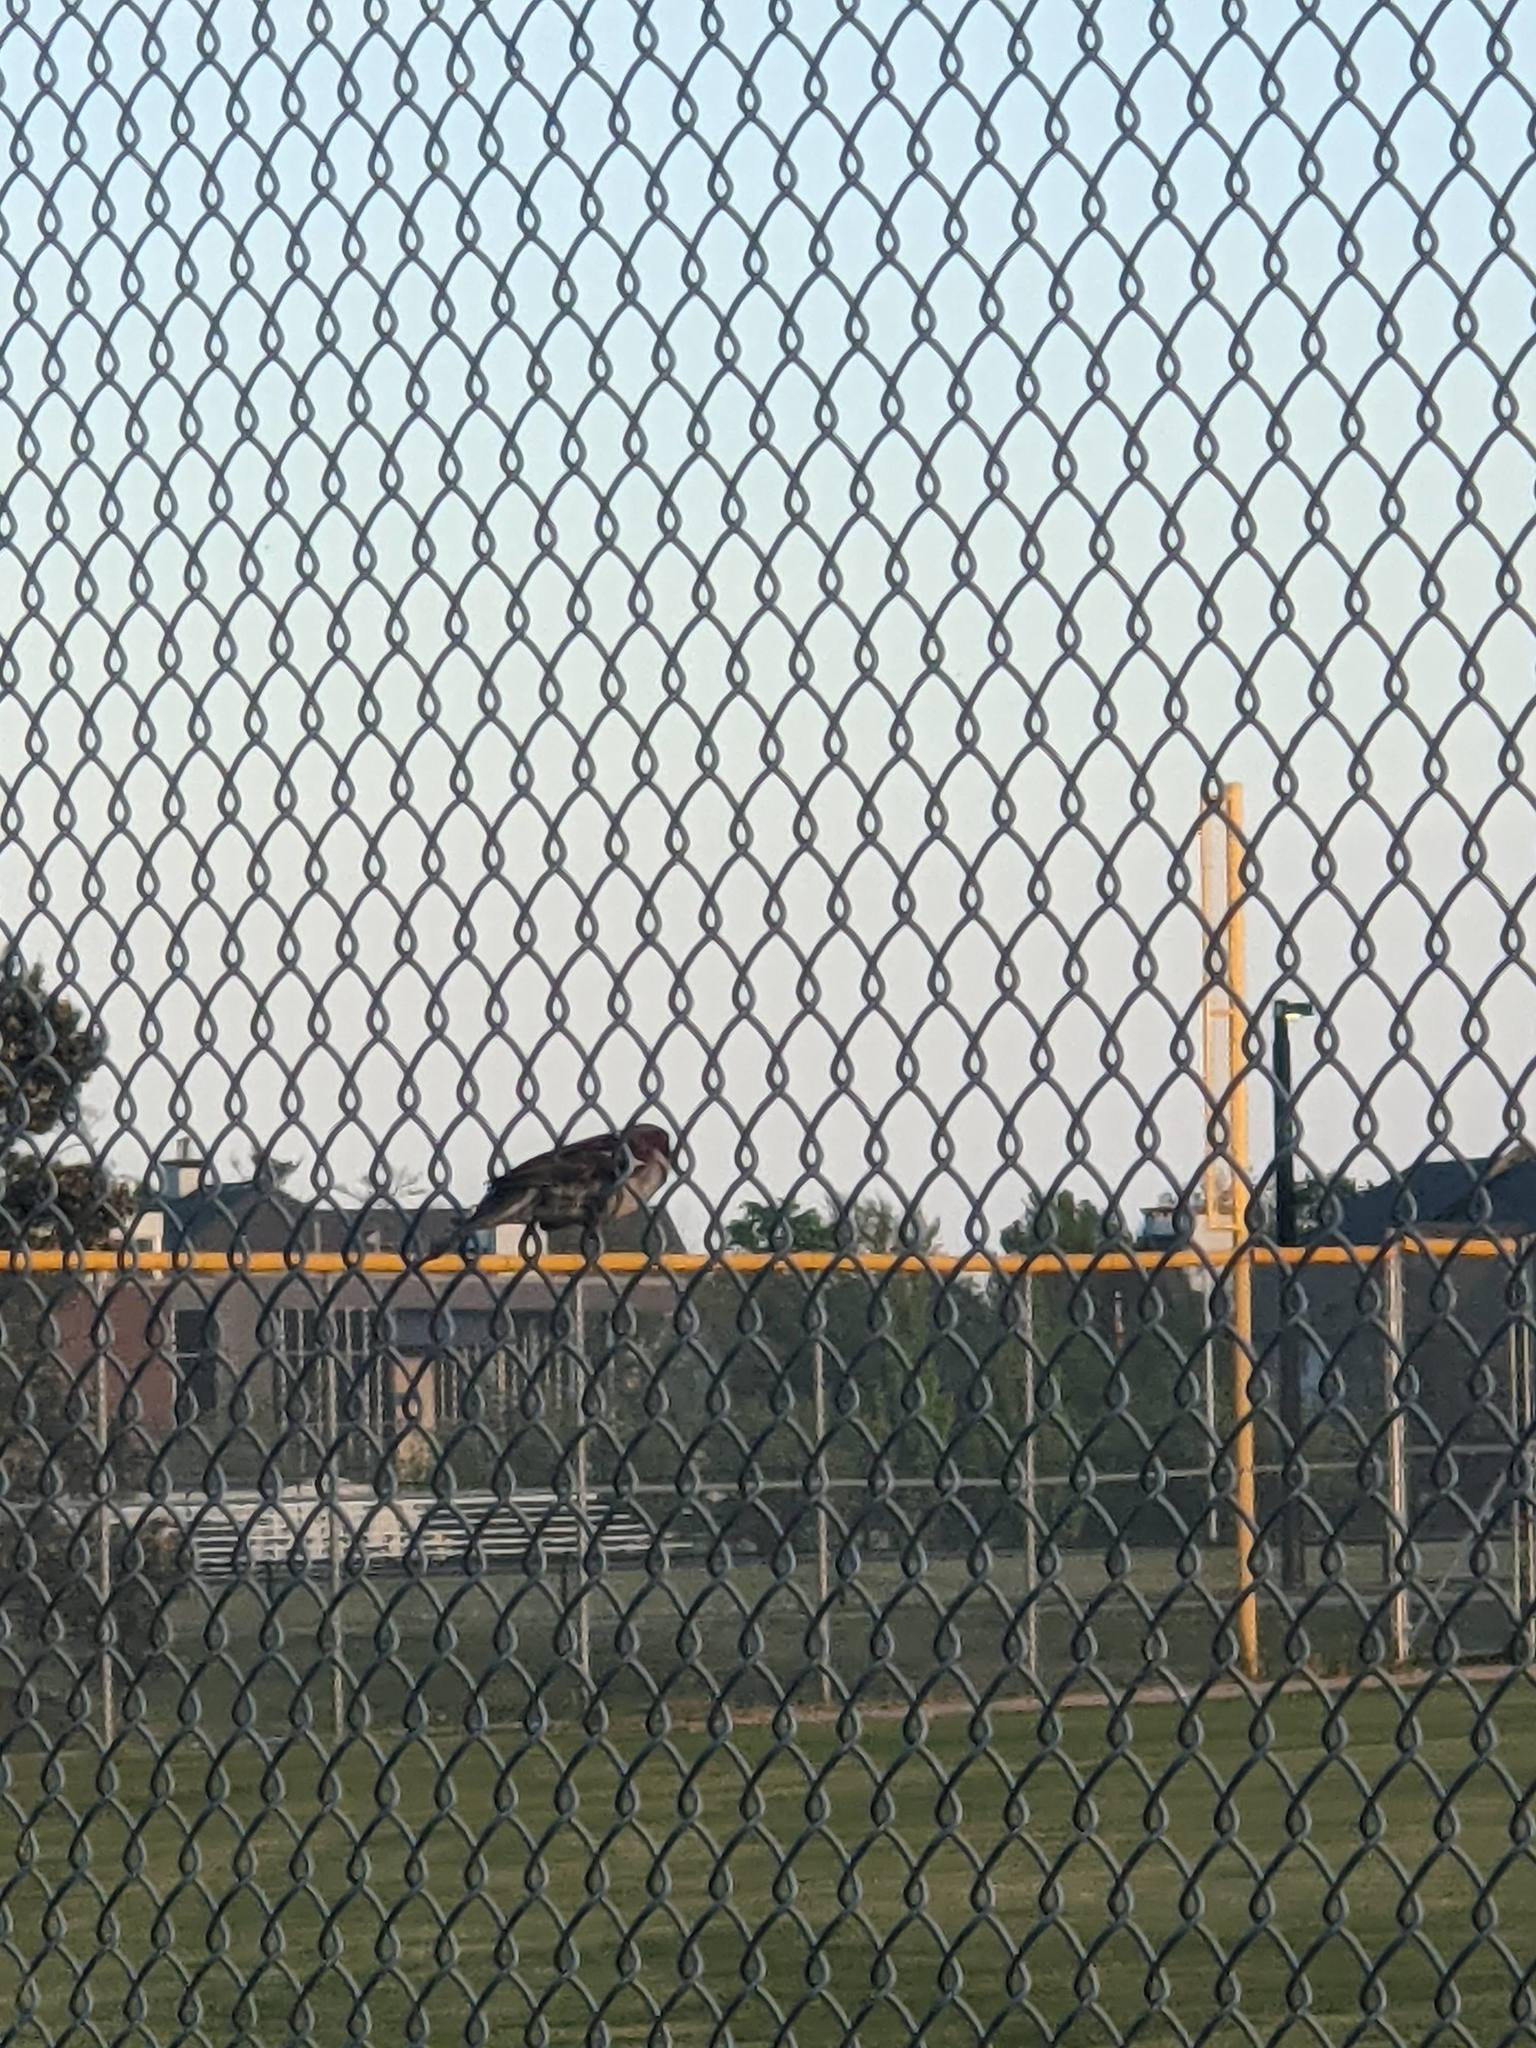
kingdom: Animalia
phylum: Chordata
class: Aves
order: Passeriformes
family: Passeridae
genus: Passer
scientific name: Passer domesticus
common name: House sparrow
